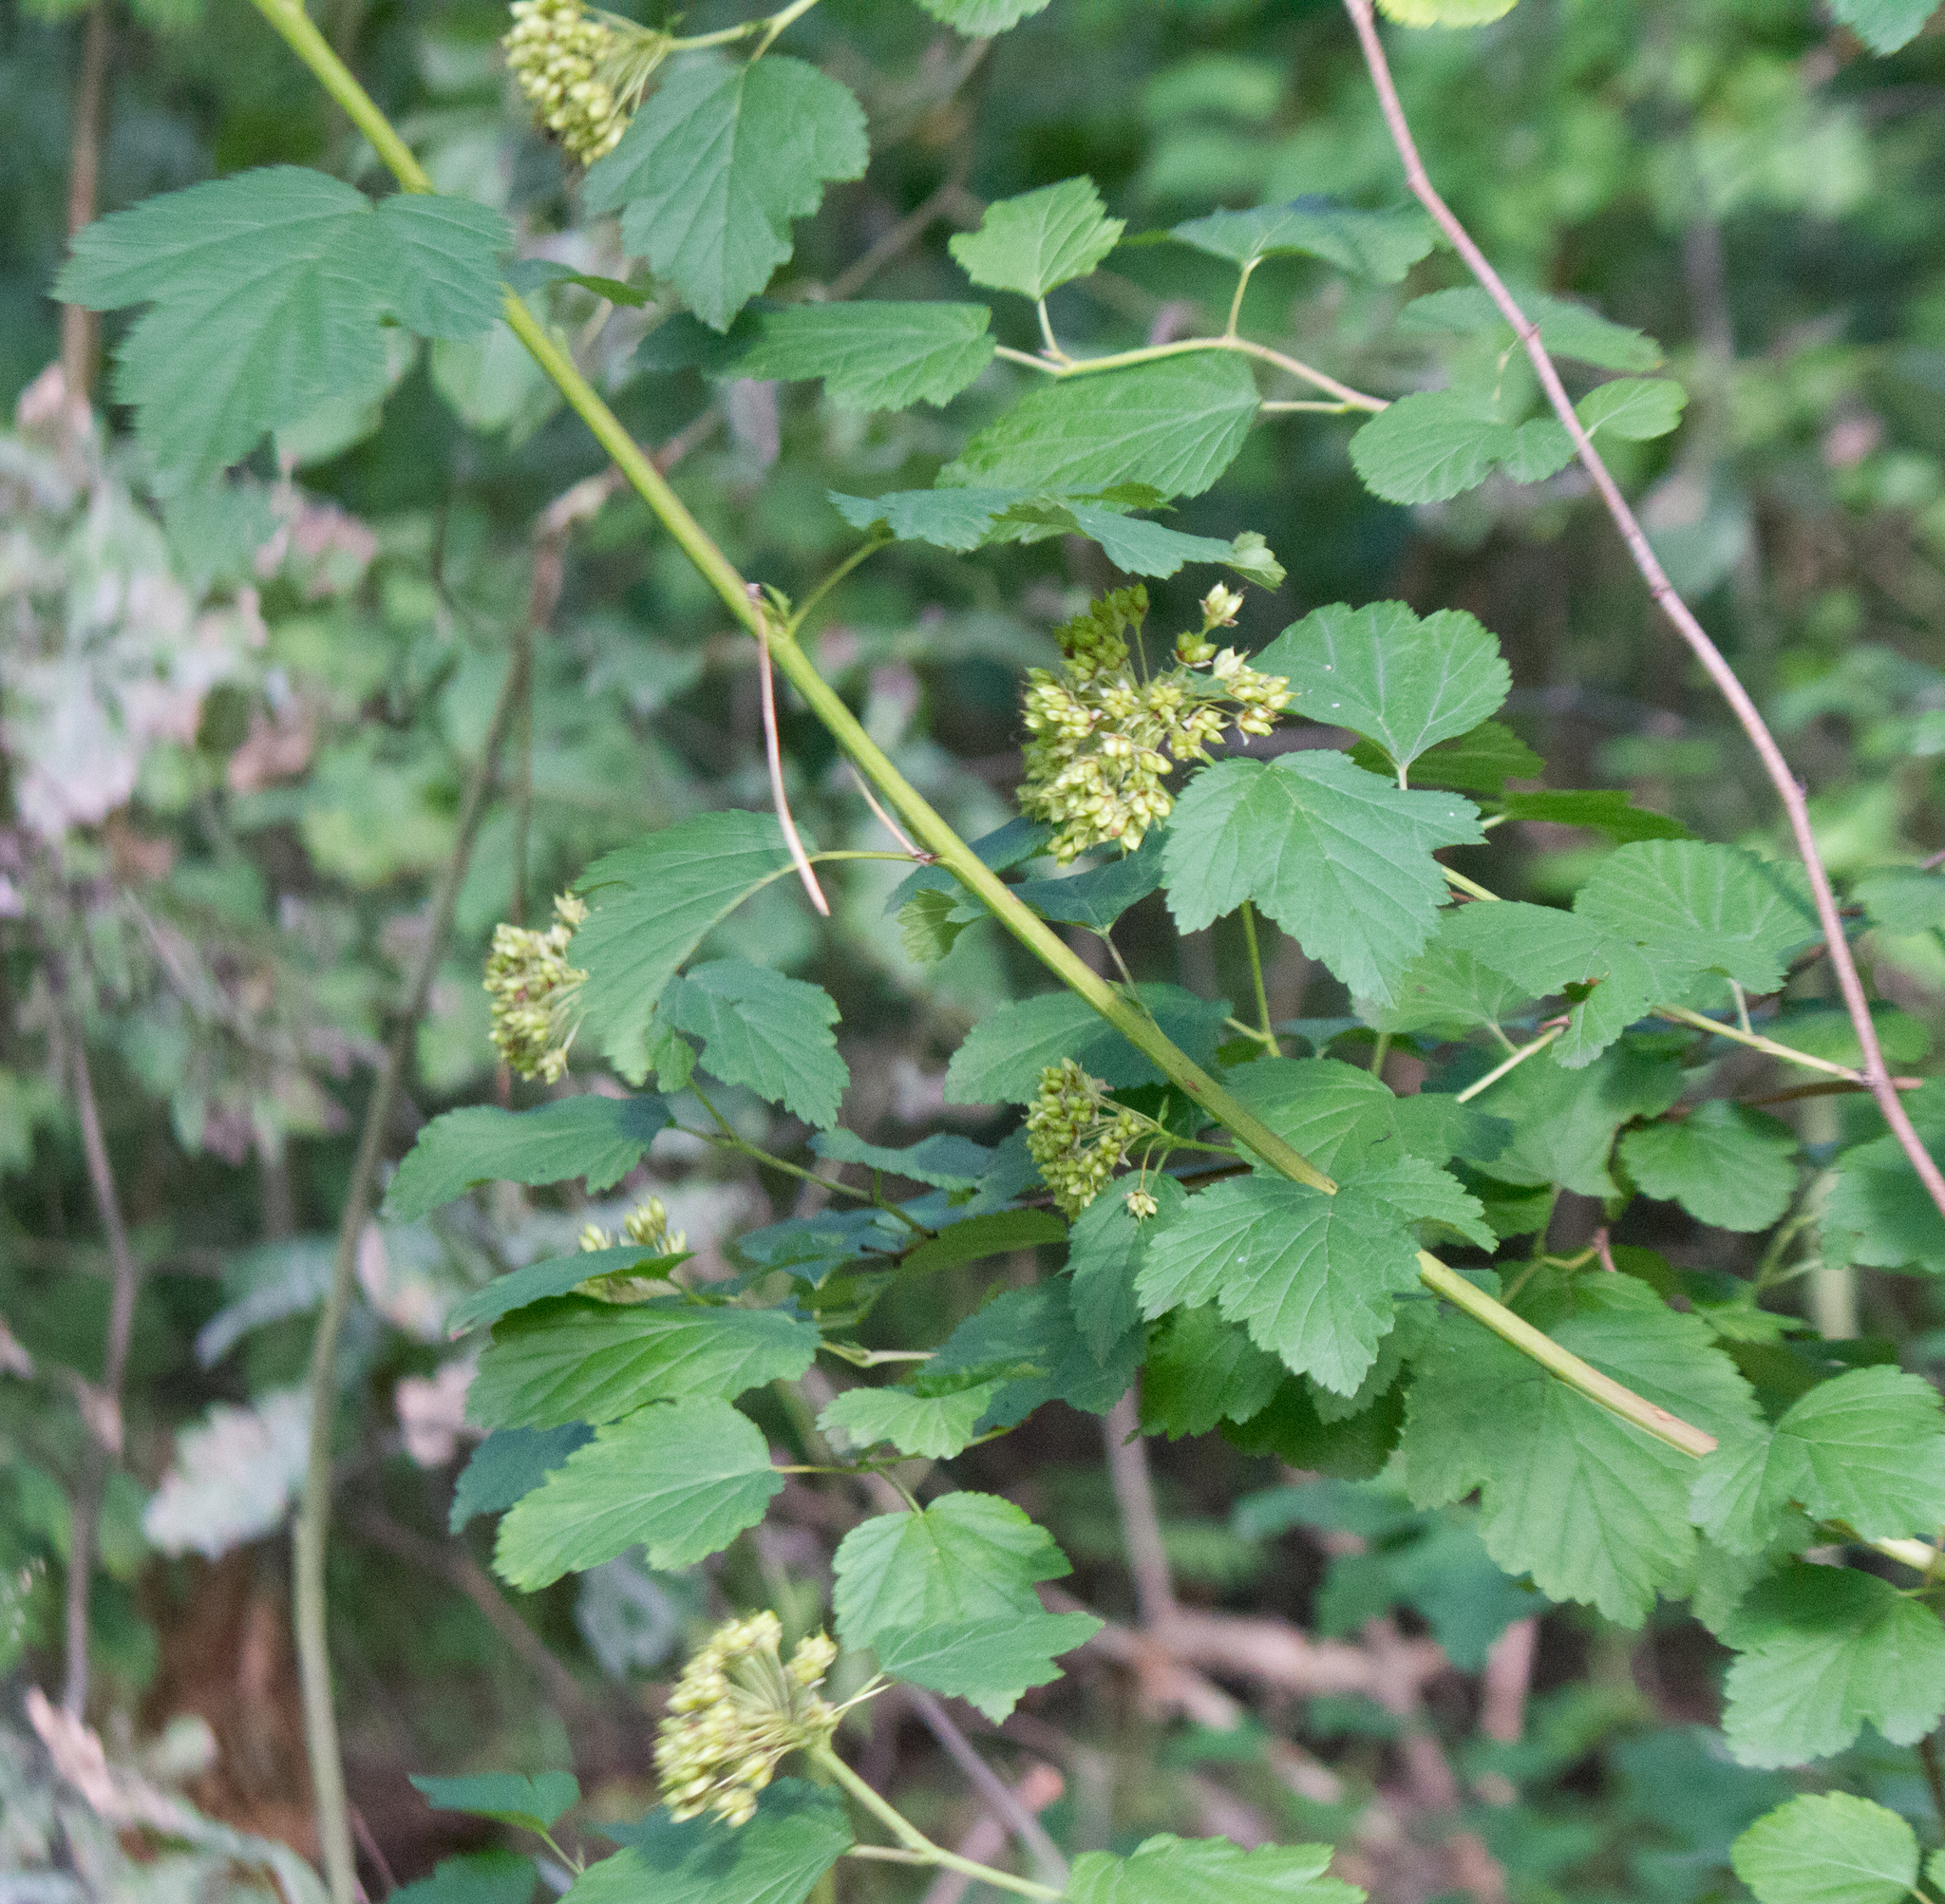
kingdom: Plantae
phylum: Tracheophyta
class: Magnoliopsida
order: Rosales
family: Rosaceae
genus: Physocarpus
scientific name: Physocarpus opulifolius
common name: Ninebark
